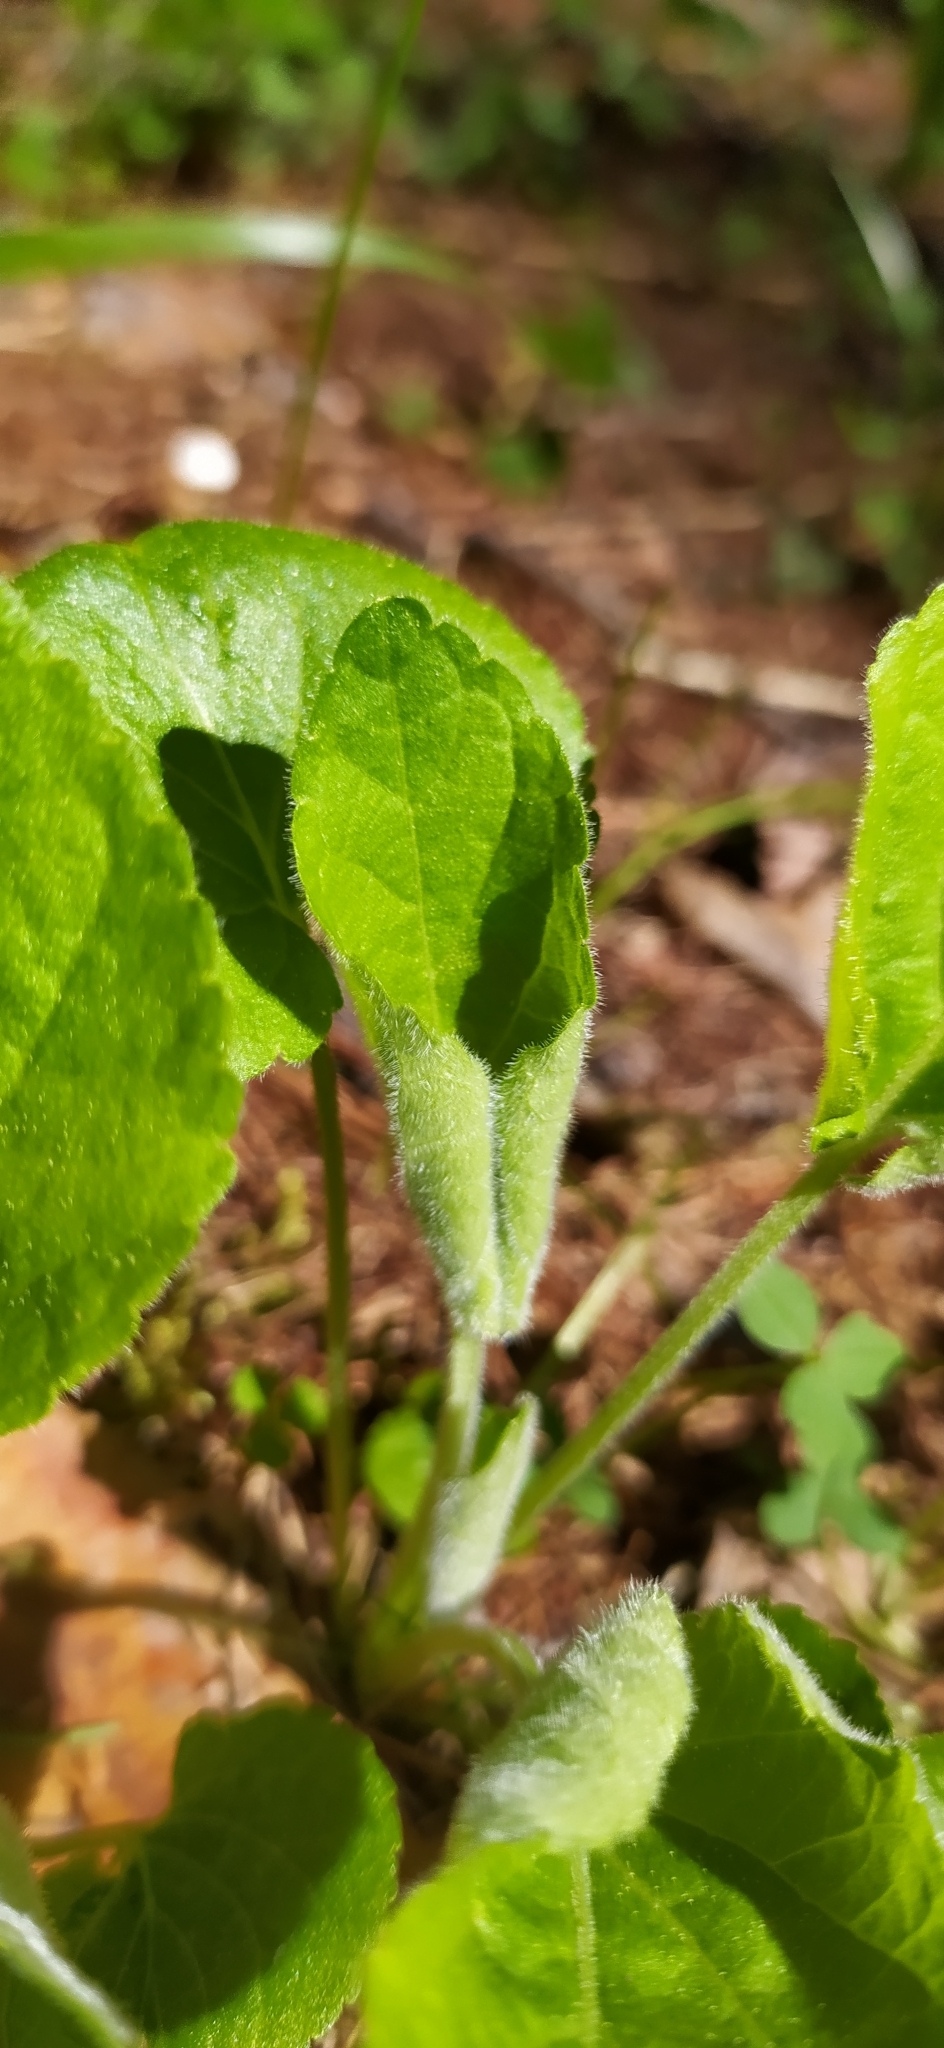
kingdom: Plantae
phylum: Tracheophyta
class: Magnoliopsida
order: Malpighiales
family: Violaceae
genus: Viola
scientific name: Viola collina
